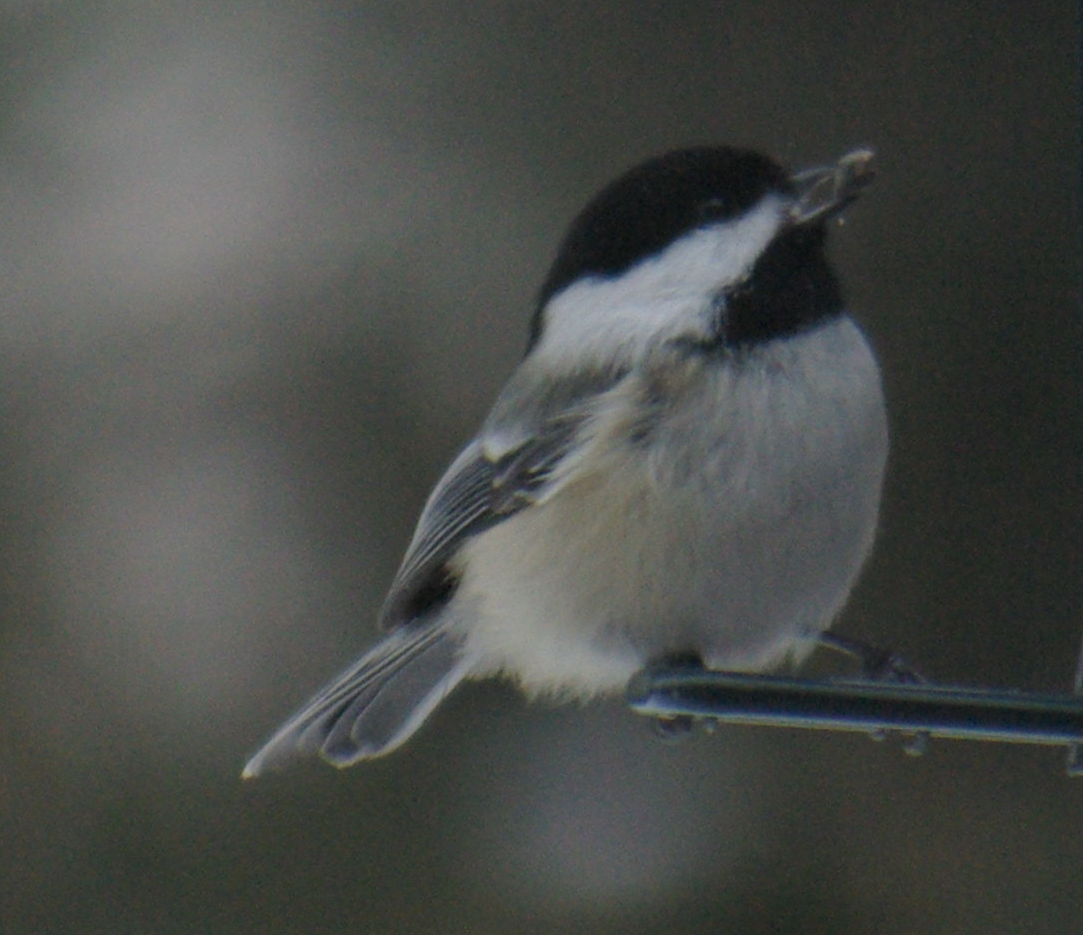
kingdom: Animalia
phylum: Chordata
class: Aves
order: Passeriformes
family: Paridae
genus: Poecile
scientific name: Poecile atricapillus
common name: Black-capped chickadee
